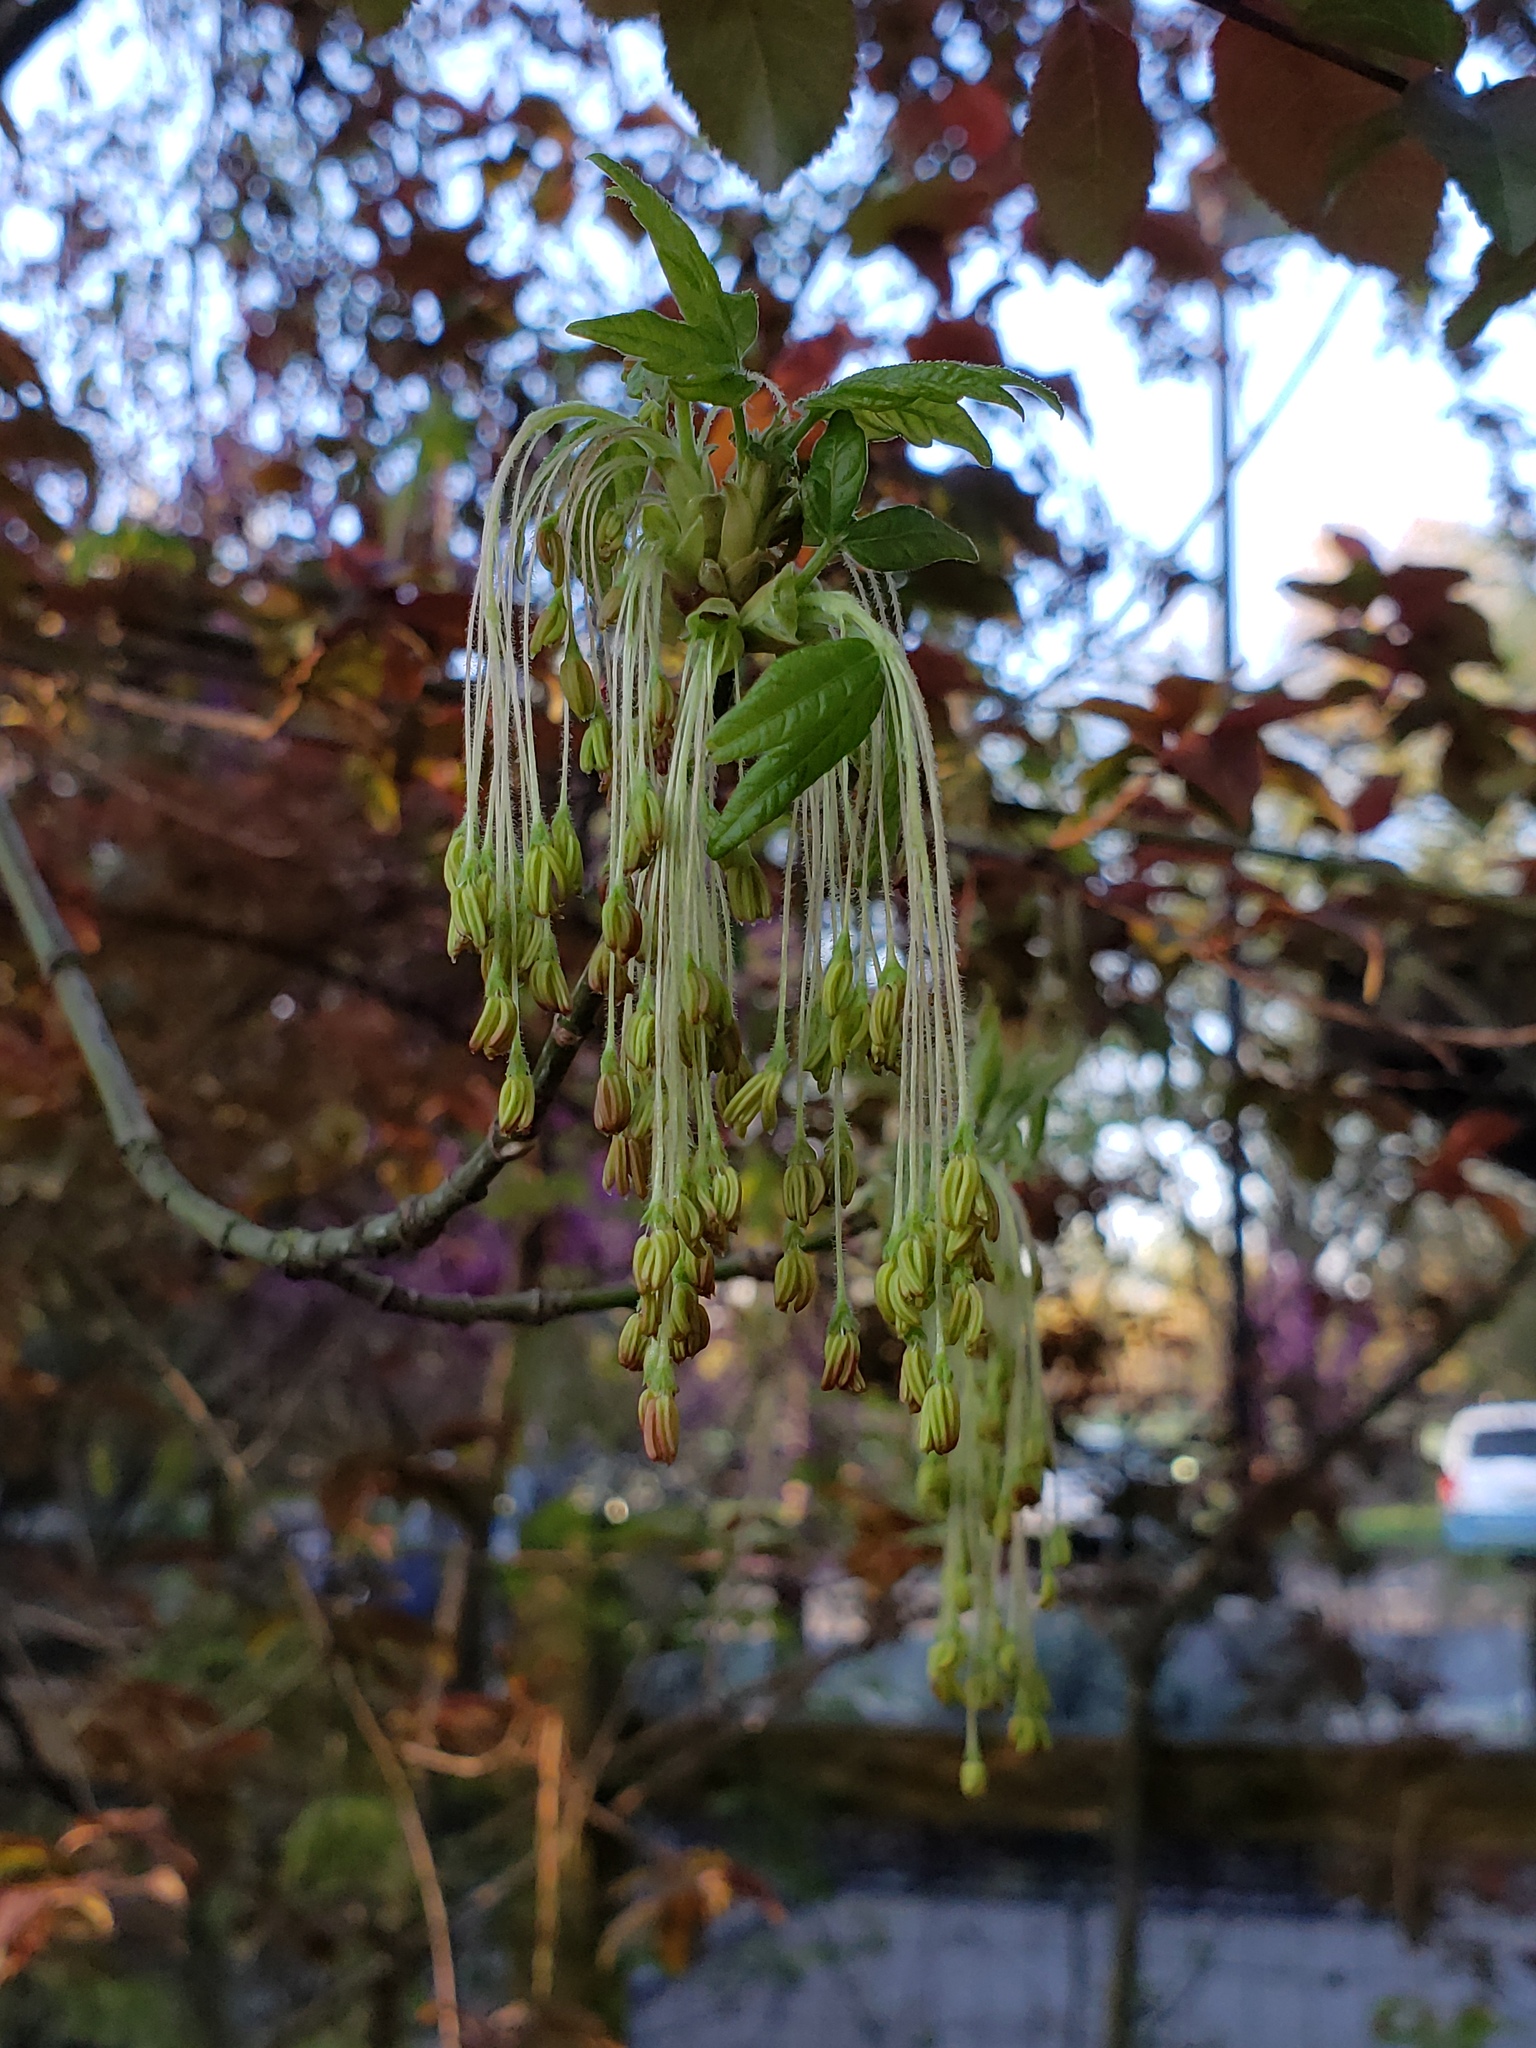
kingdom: Plantae
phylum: Tracheophyta
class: Magnoliopsida
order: Sapindales
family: Sapindaceae
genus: Acer
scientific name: Acer negundo
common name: Ashleaf maple
